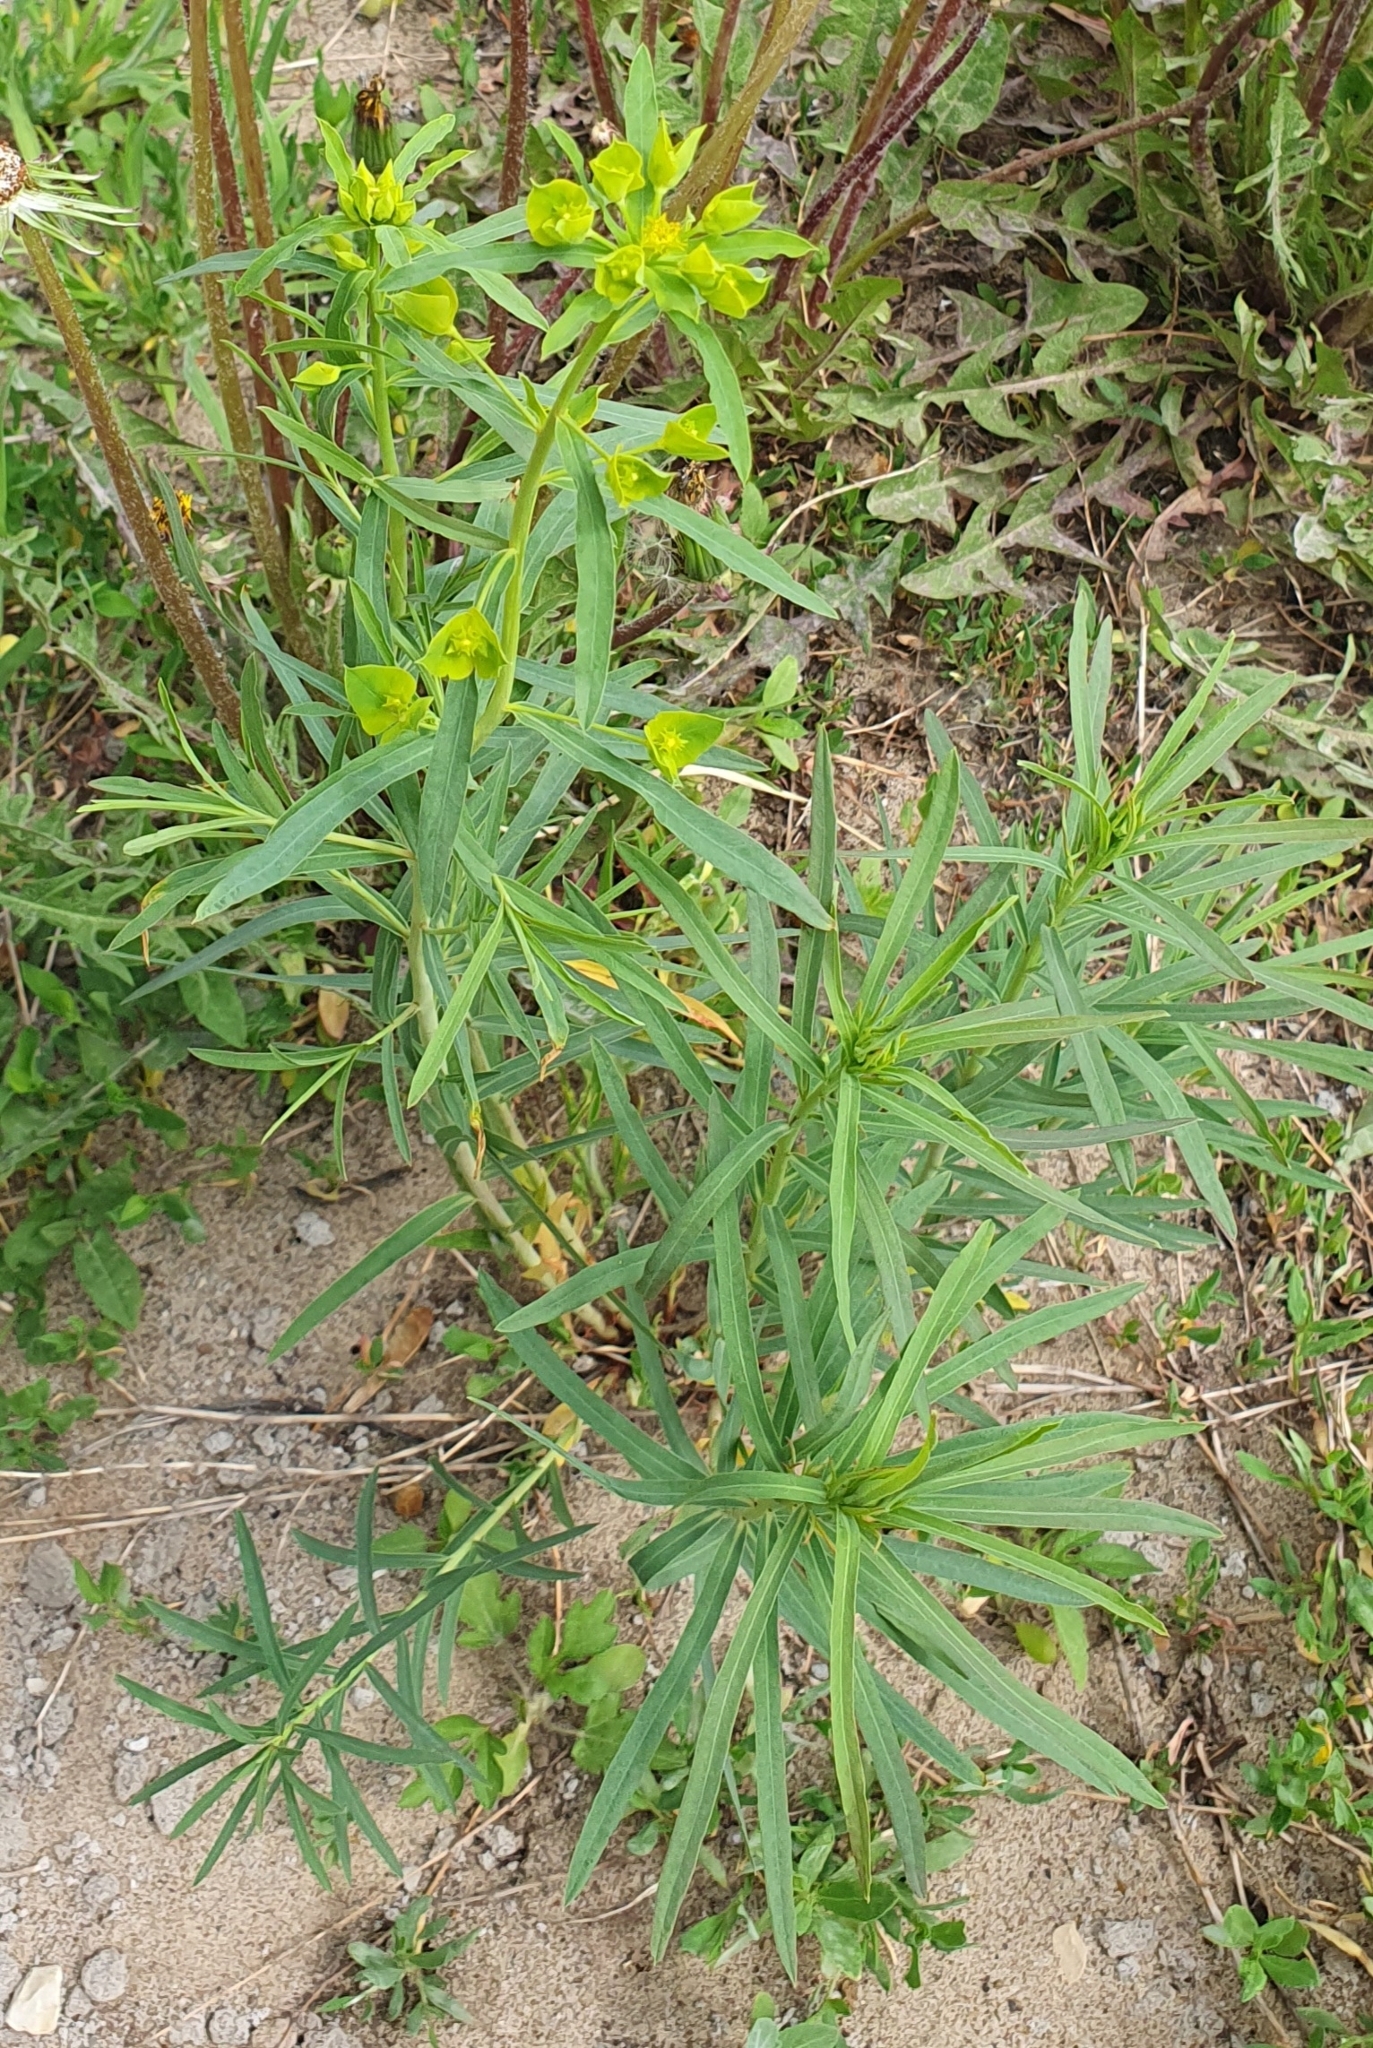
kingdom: Plantae
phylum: Tracheophyta
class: Magnoliopsida
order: Malpighiales
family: Euphorbiaceae
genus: Euphorbia
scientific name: Euphorbia virgata
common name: Leafy spurge
